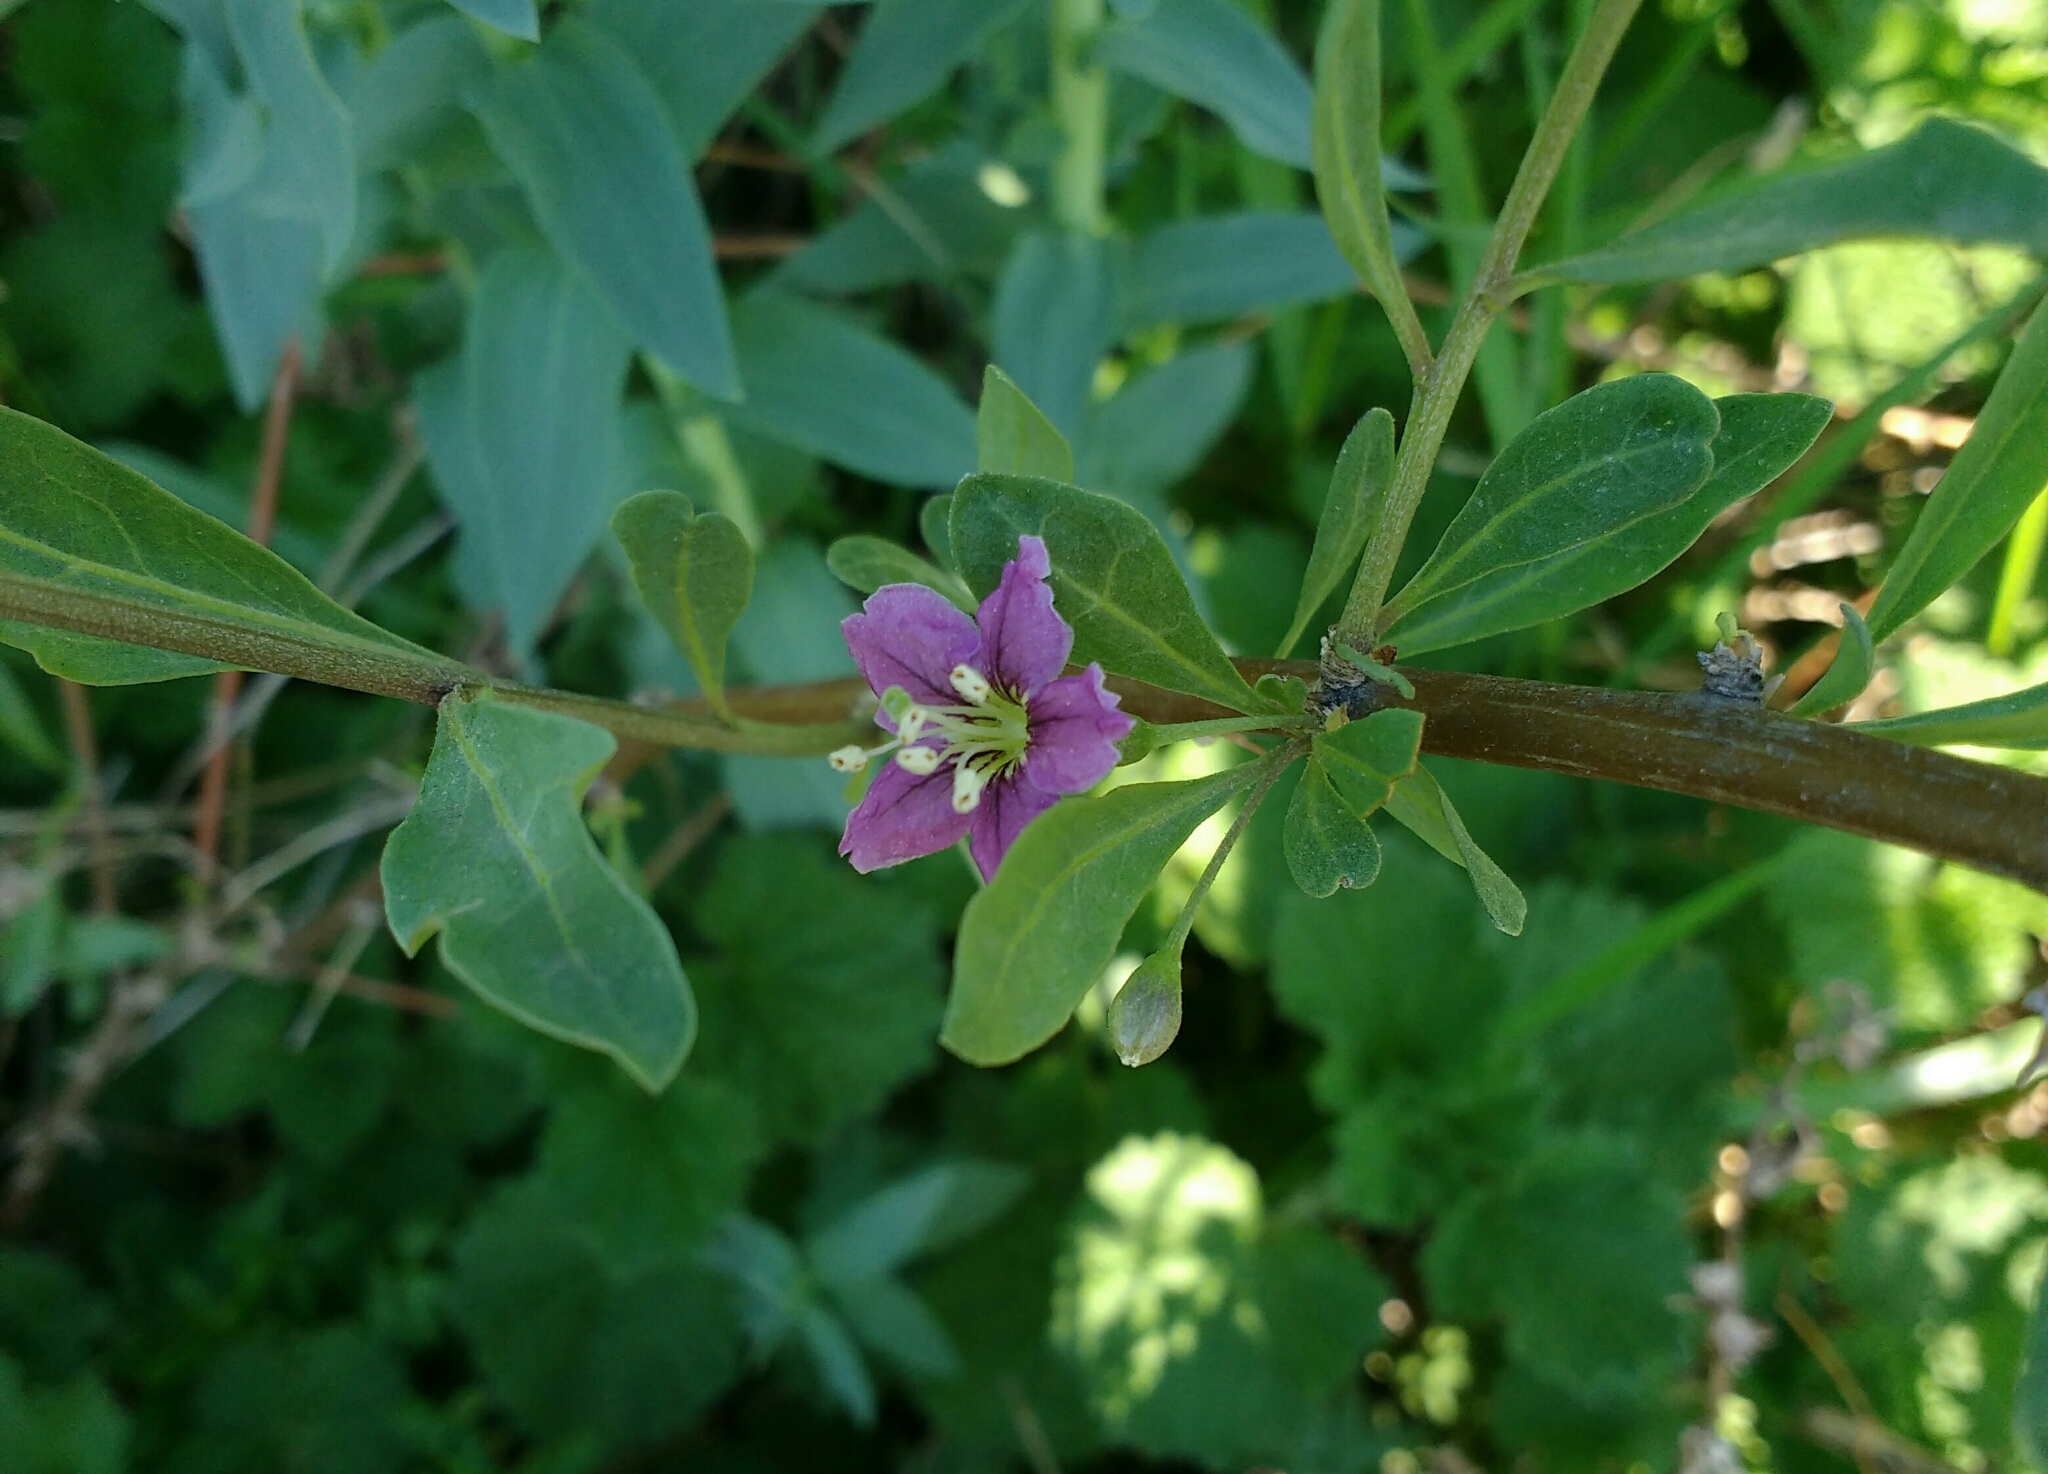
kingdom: Plantae
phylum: Tracheophyta
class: Magnoliopsida
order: Solanales
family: Solanaceae
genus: Lycium
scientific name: Lycium barbarum
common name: Duke of argyll's teaplant
